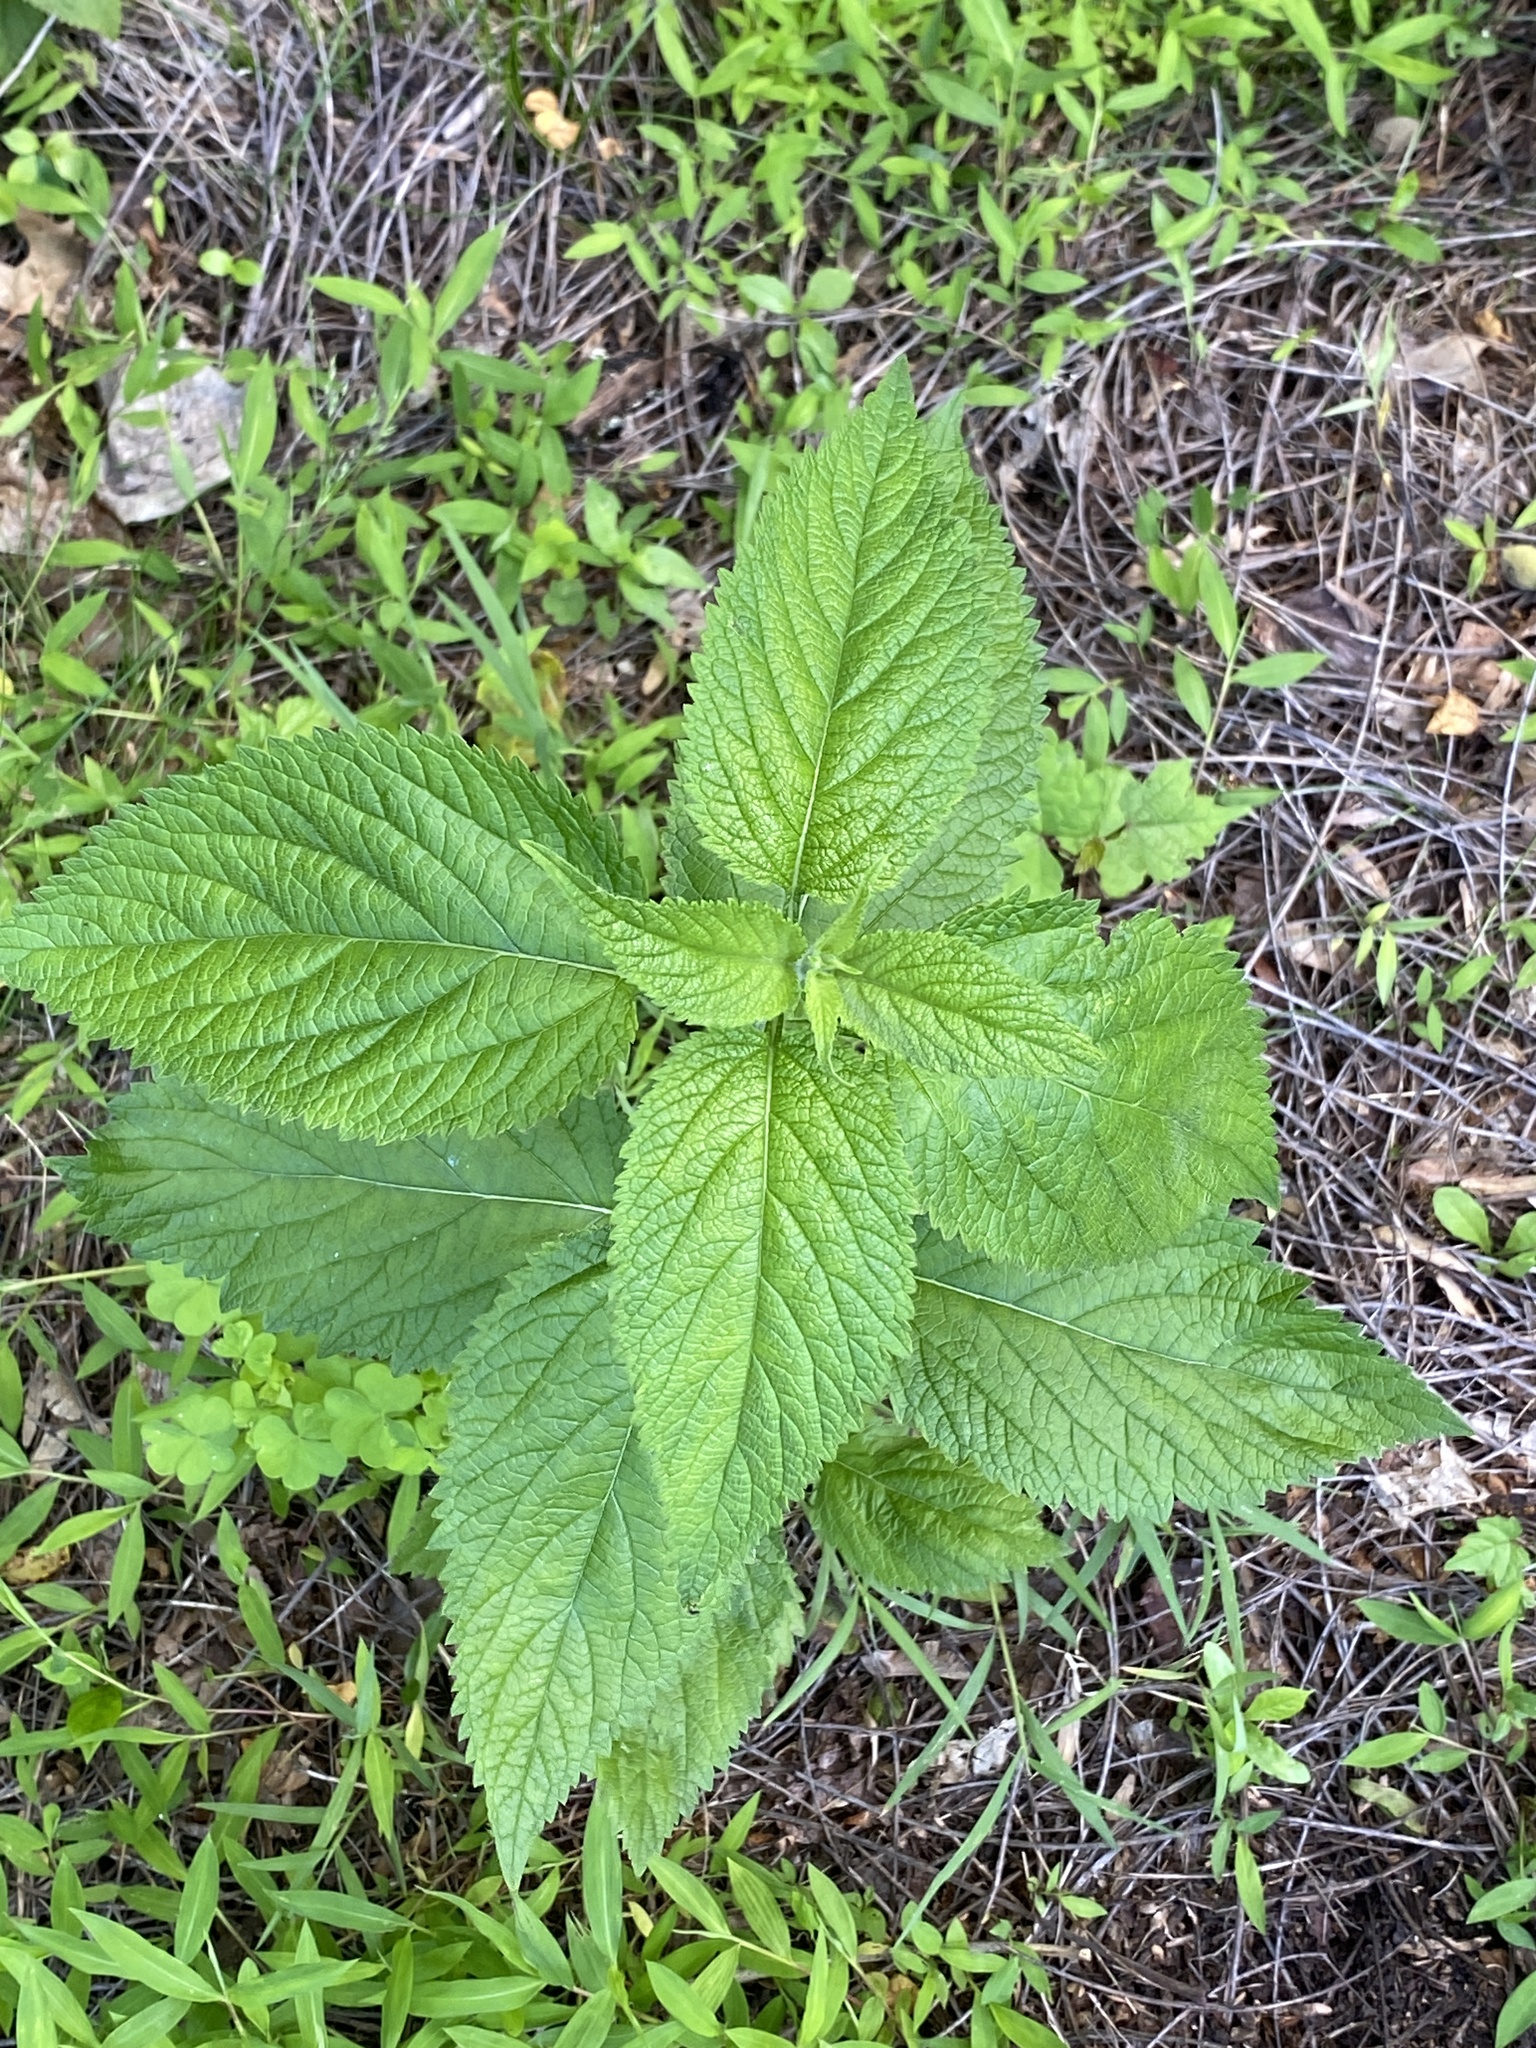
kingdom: Plantae
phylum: Tracheophyta
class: Magnoliopsida
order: Lamiales
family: Verbenaceae
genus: Verbena
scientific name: Verbena urticifolia
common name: Nettle-leaved vervain
